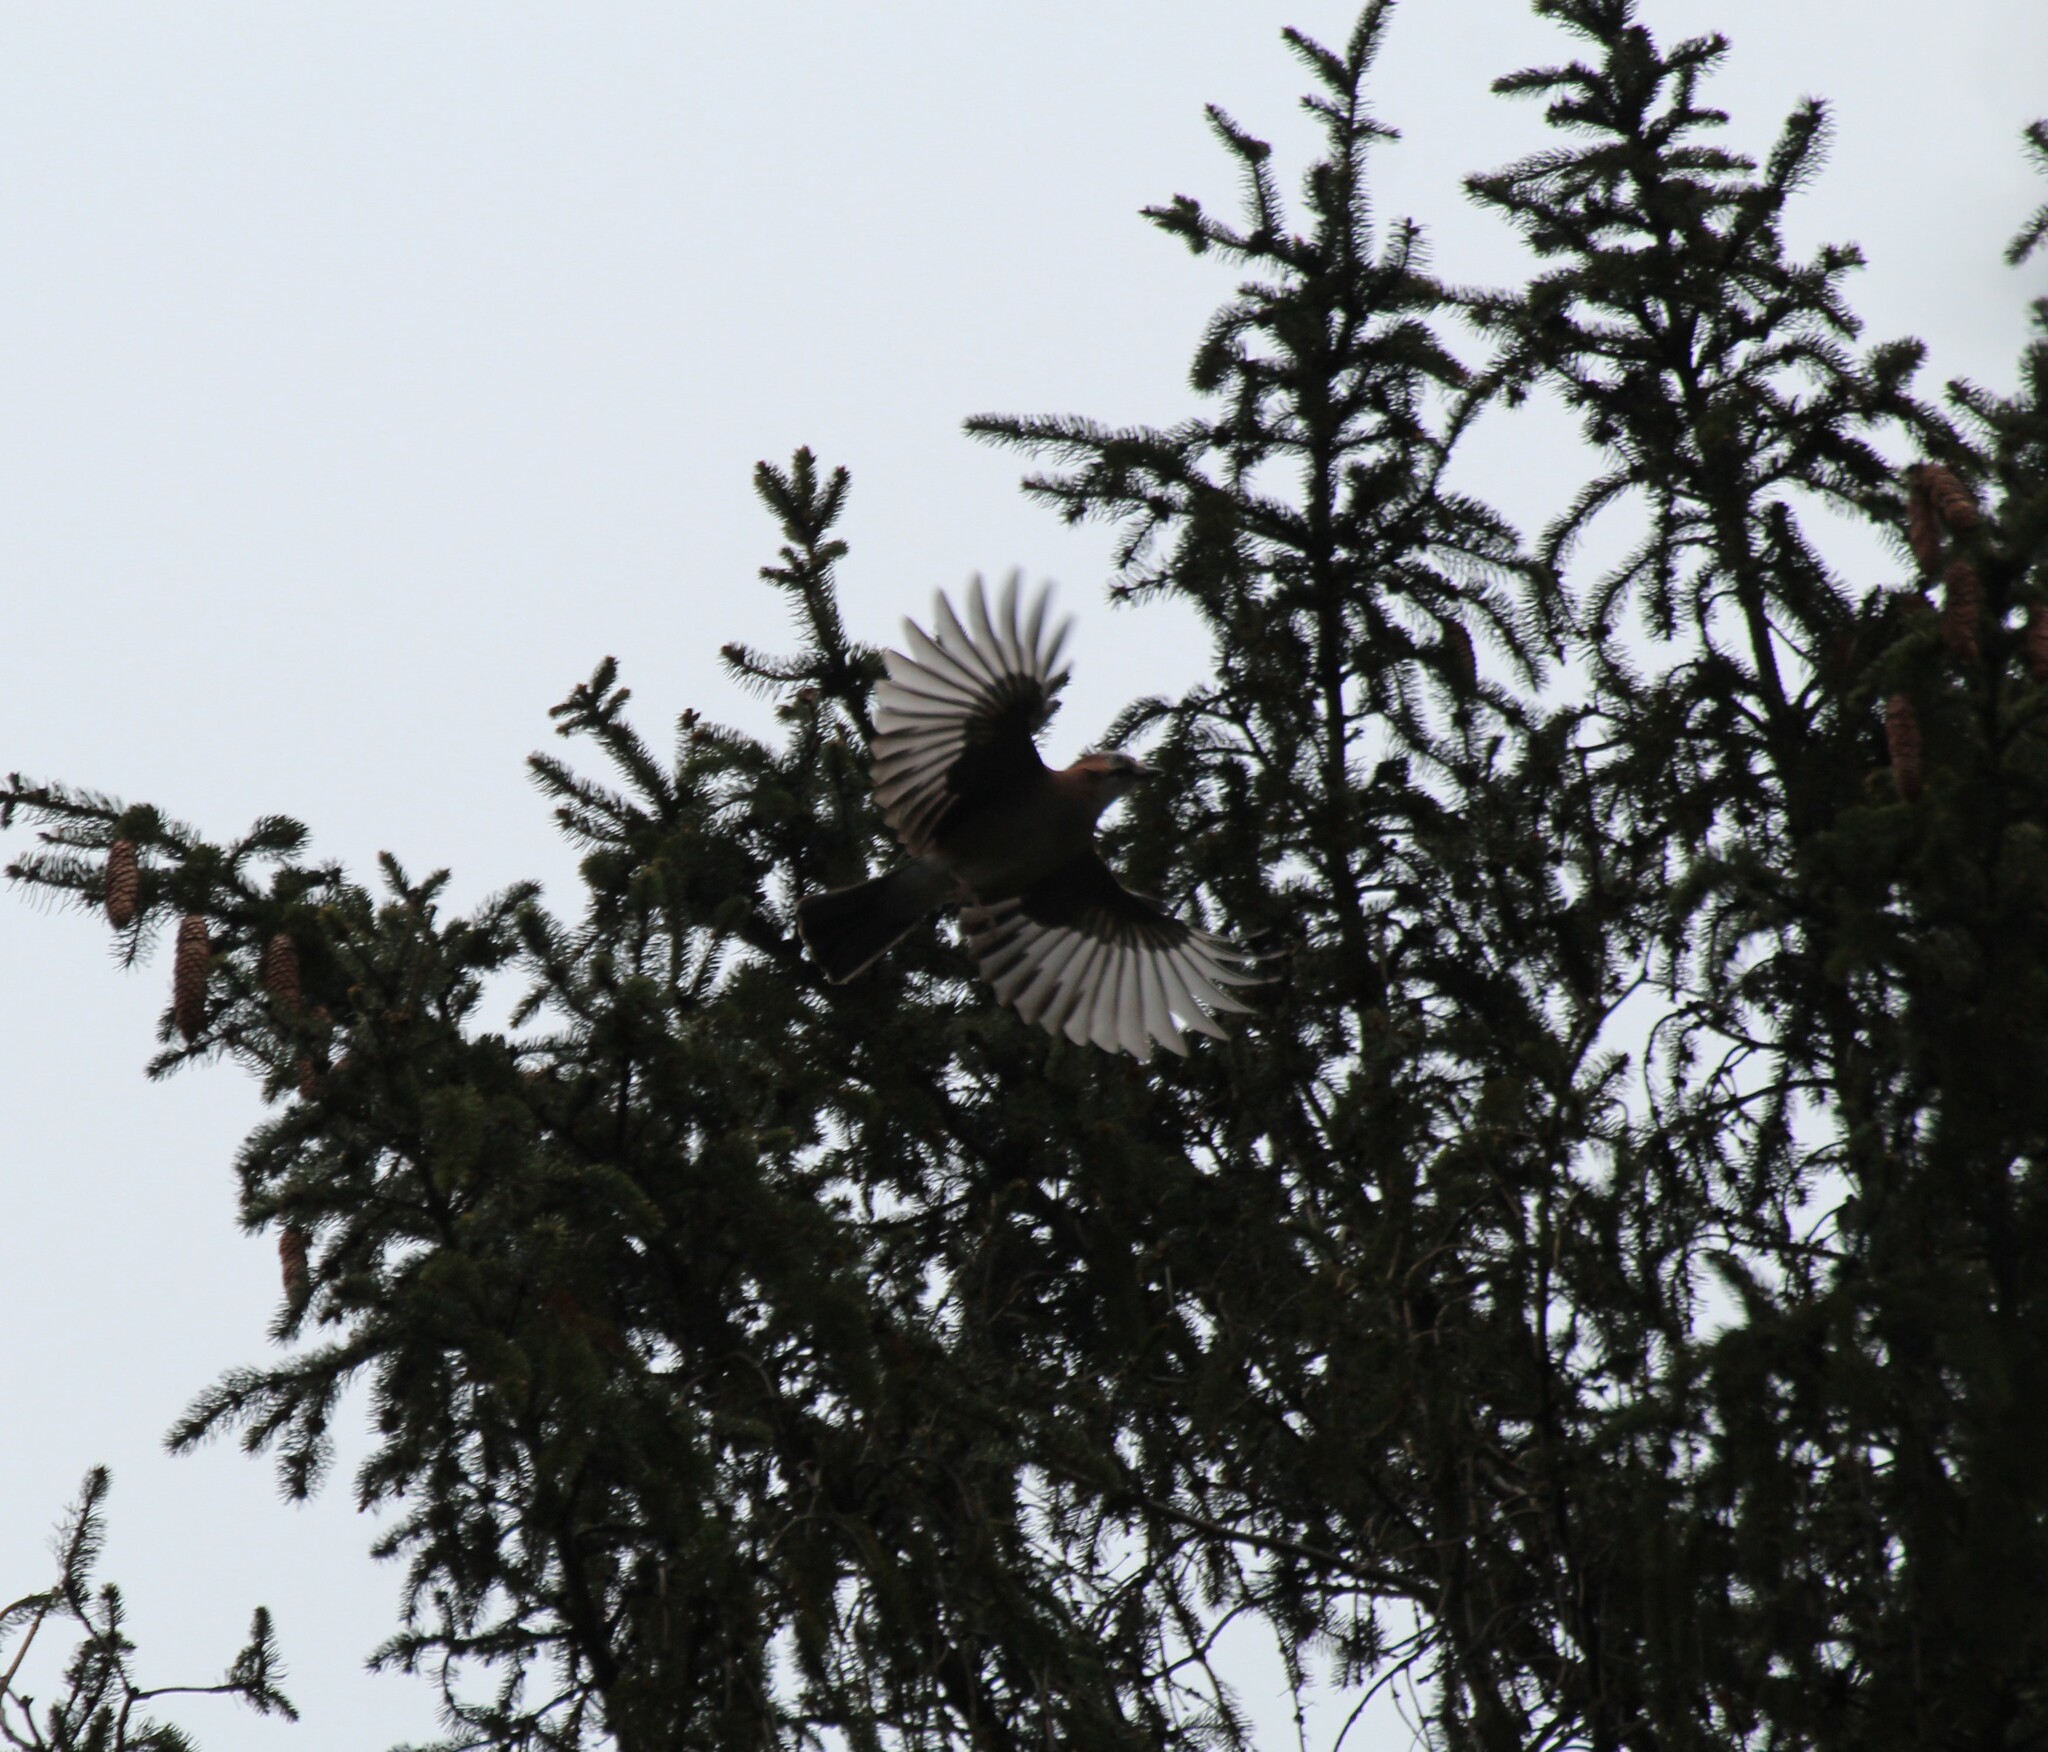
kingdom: Animalia
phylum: Chordata
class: Aves
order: Passeriformes
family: Corvidae
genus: Garrulus
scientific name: Garrulus glandarius
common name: Eurasian jay
